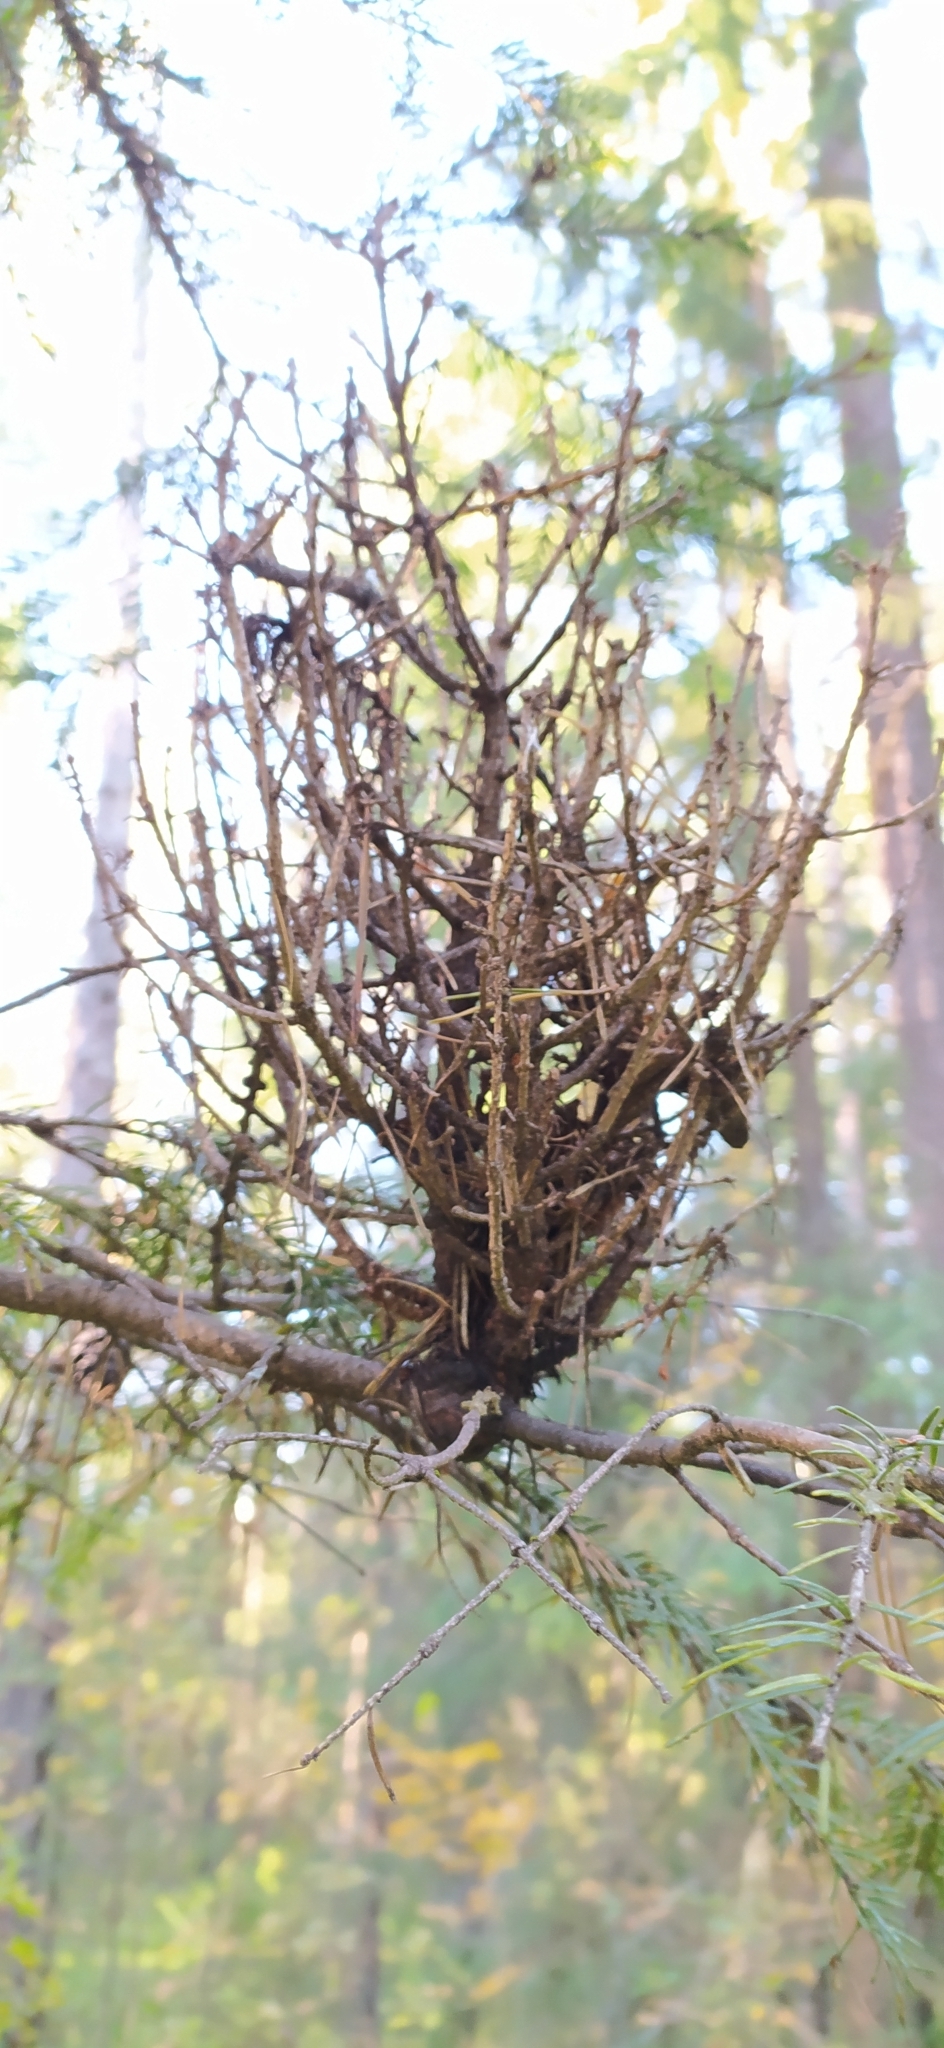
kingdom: Fungi
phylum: Basidiomycota
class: Pucciniomycetes
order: Pucciniales
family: Pucciniastraceae
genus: Melampsorella
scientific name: Melampsorella elatina
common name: Fir broom rust
